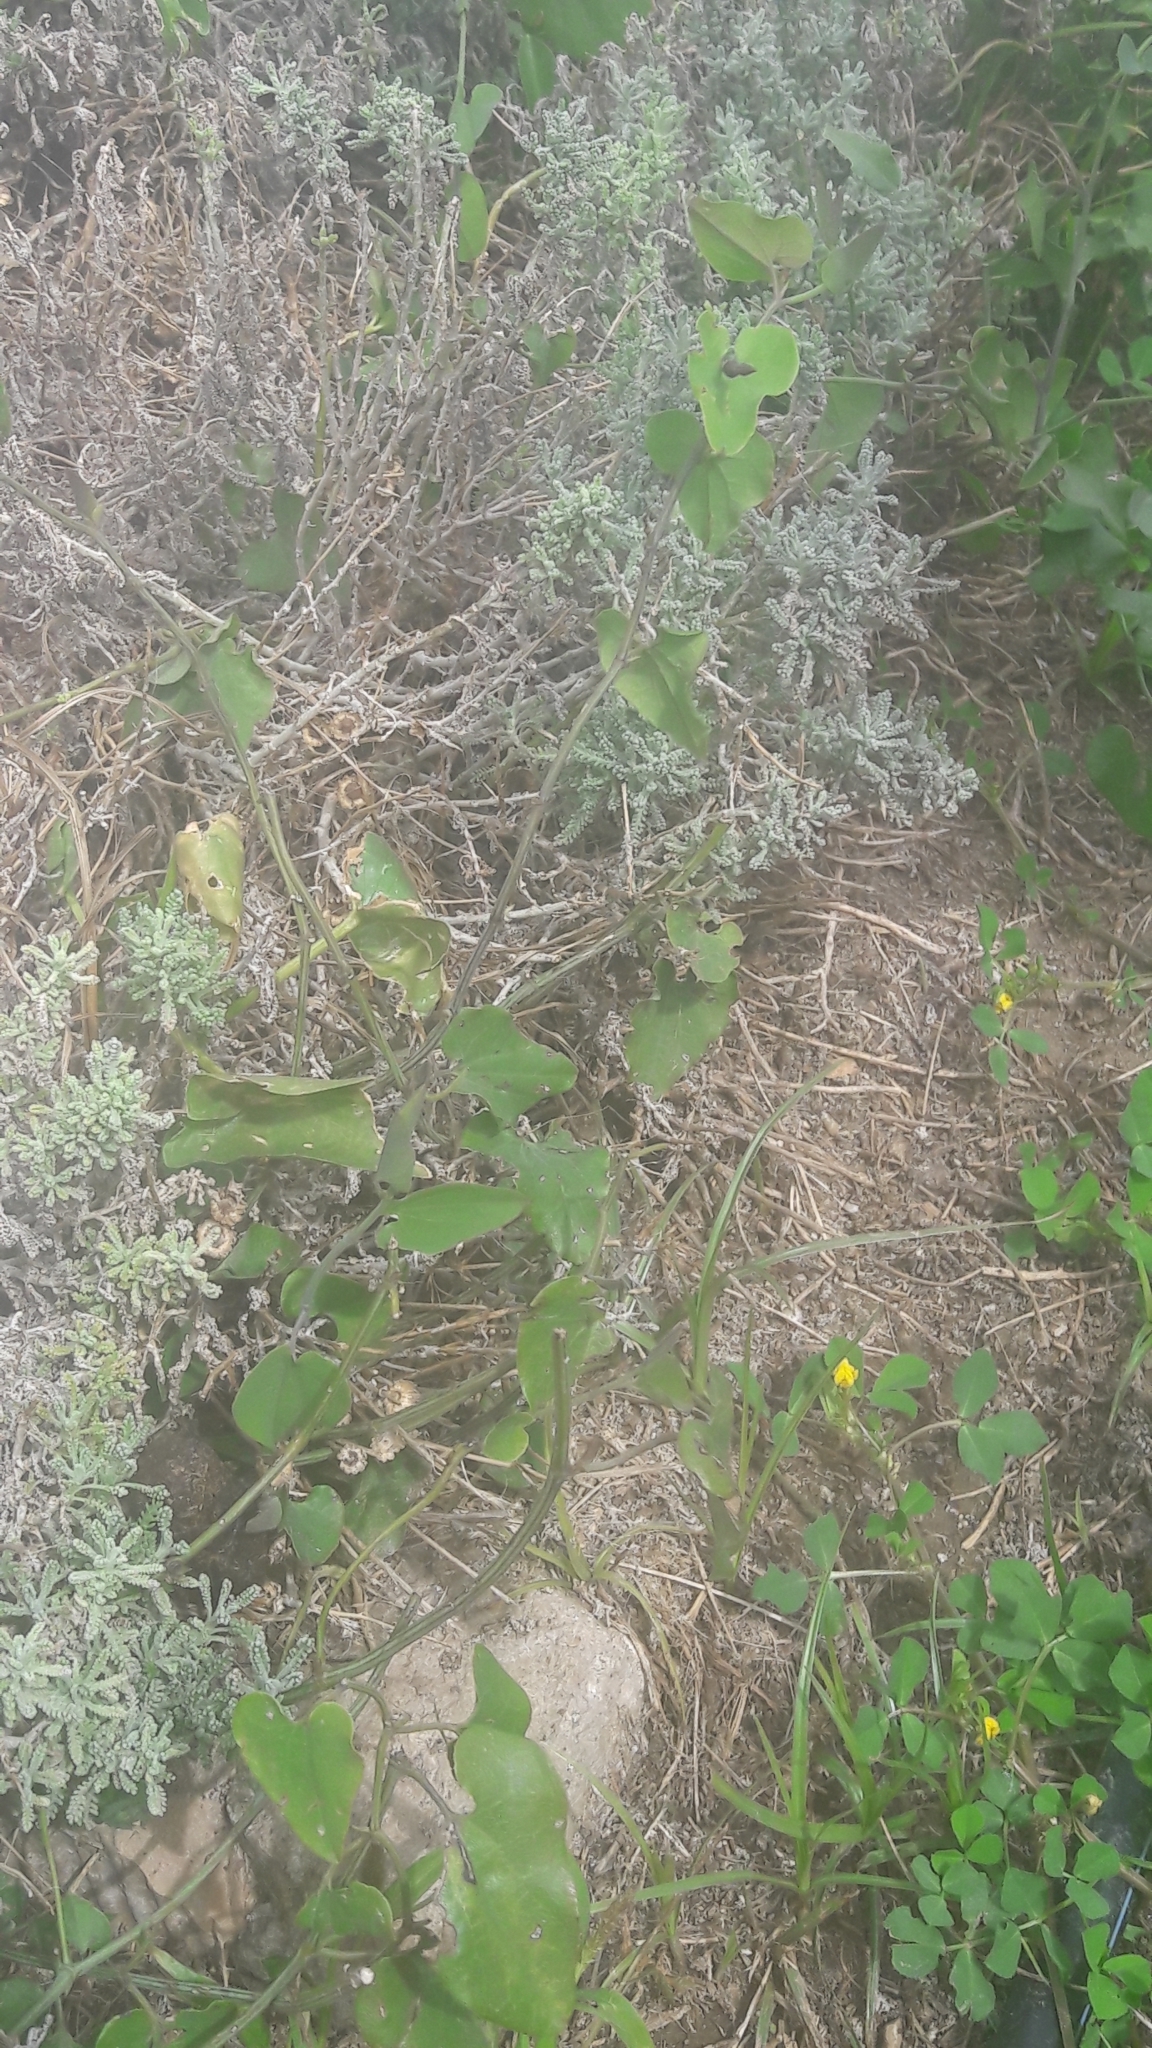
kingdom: Plantae
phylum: Tracheophyta
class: Magnoliopsida
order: Piperales
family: Aristolochiaceae
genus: Aristolochia
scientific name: Aristolochia baetica
